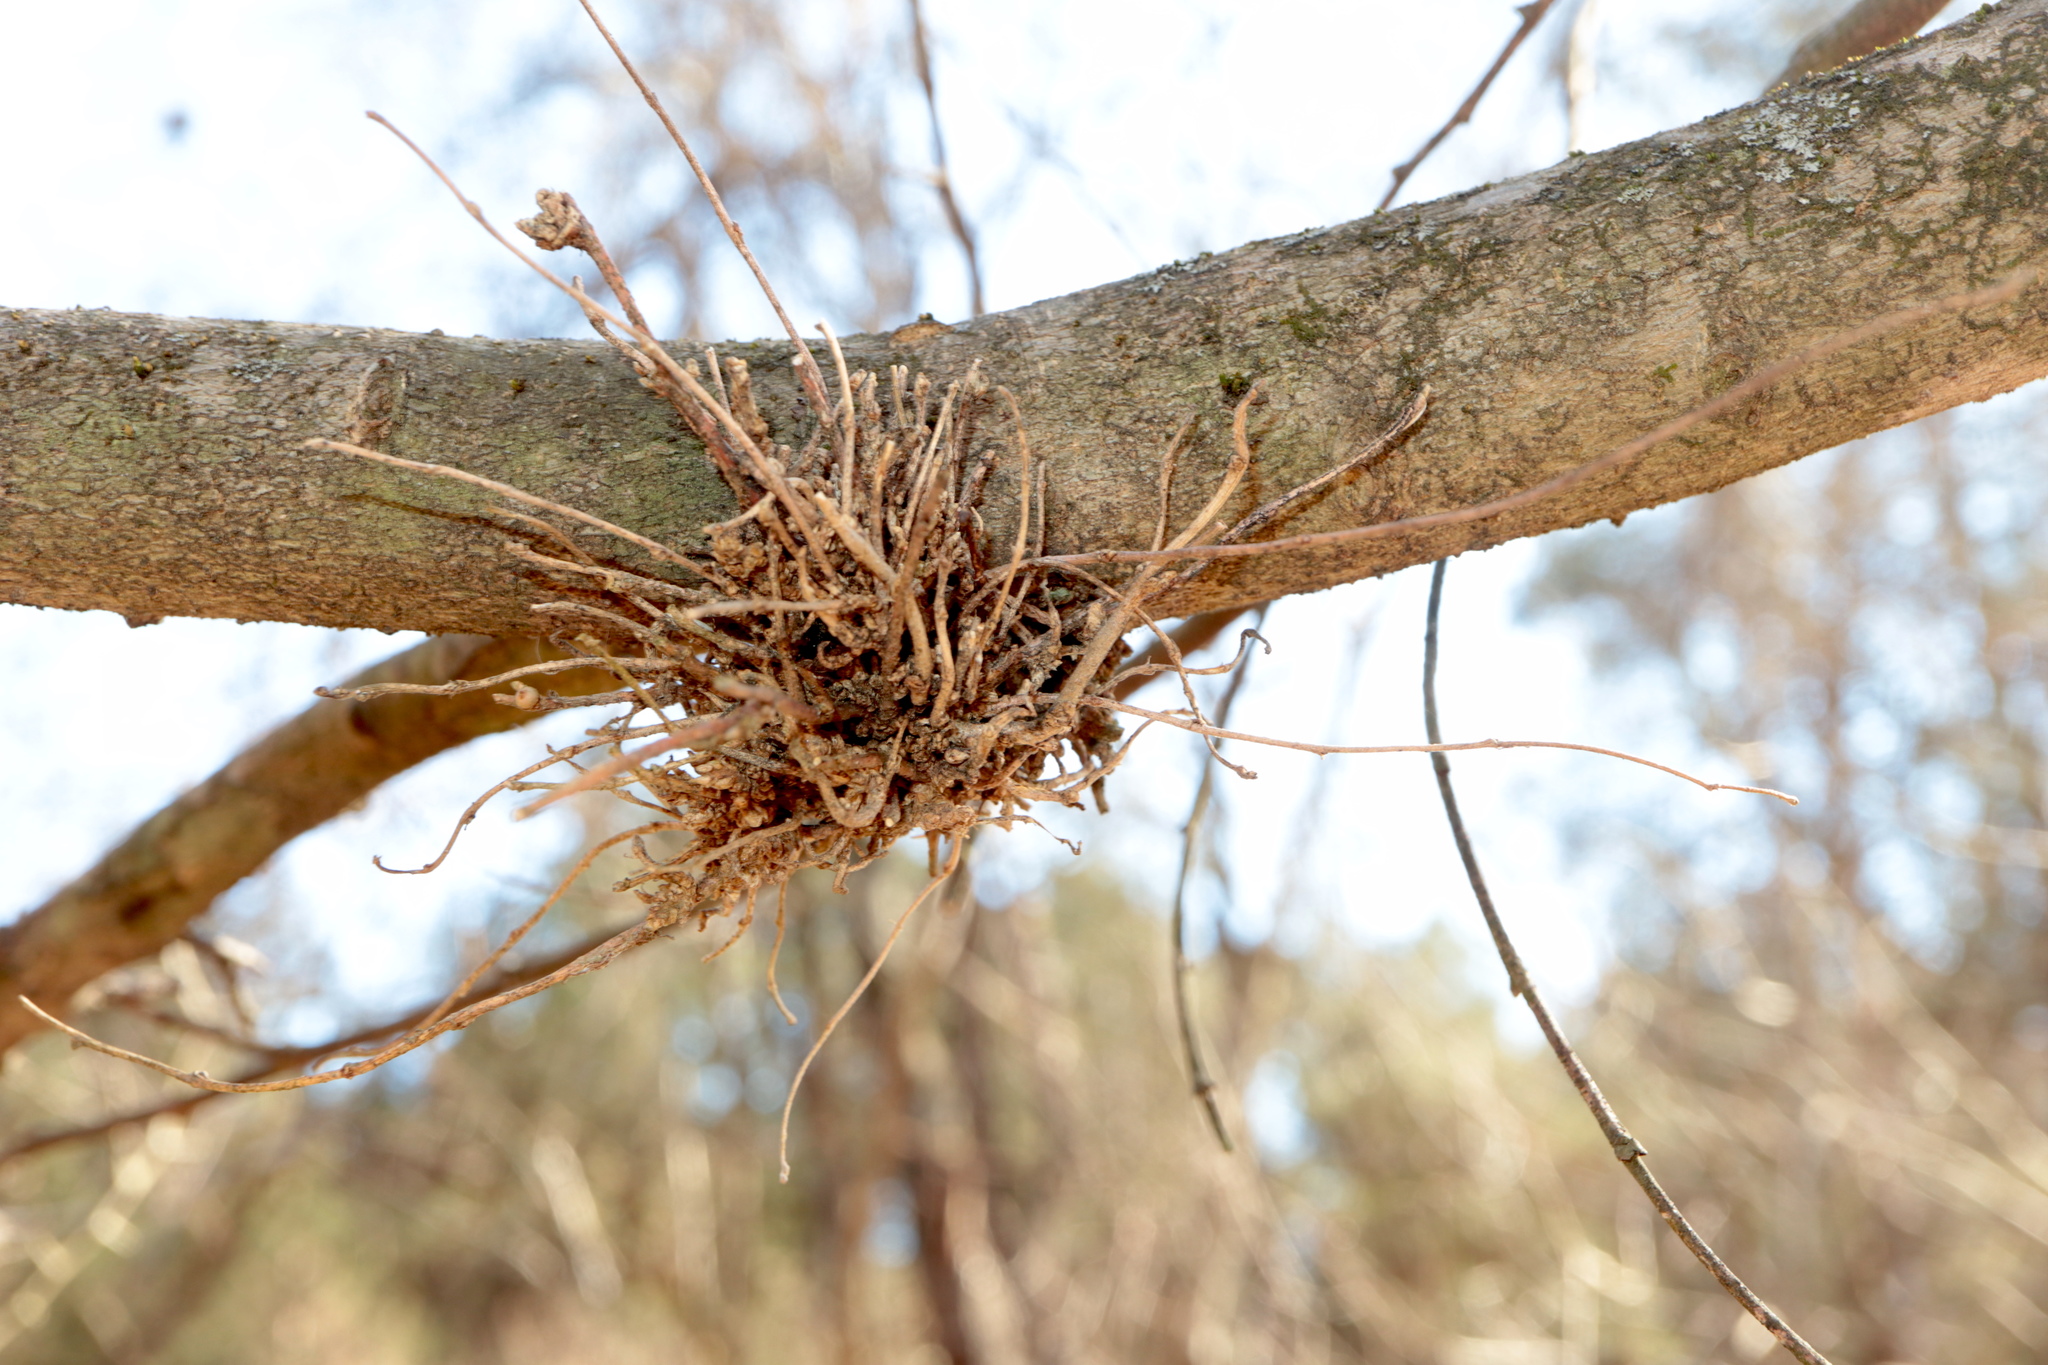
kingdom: Animalia
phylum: Arthropoda
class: Arachnida
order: Trombidiformes
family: Eriophyidae
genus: Aceria
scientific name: Aceria
